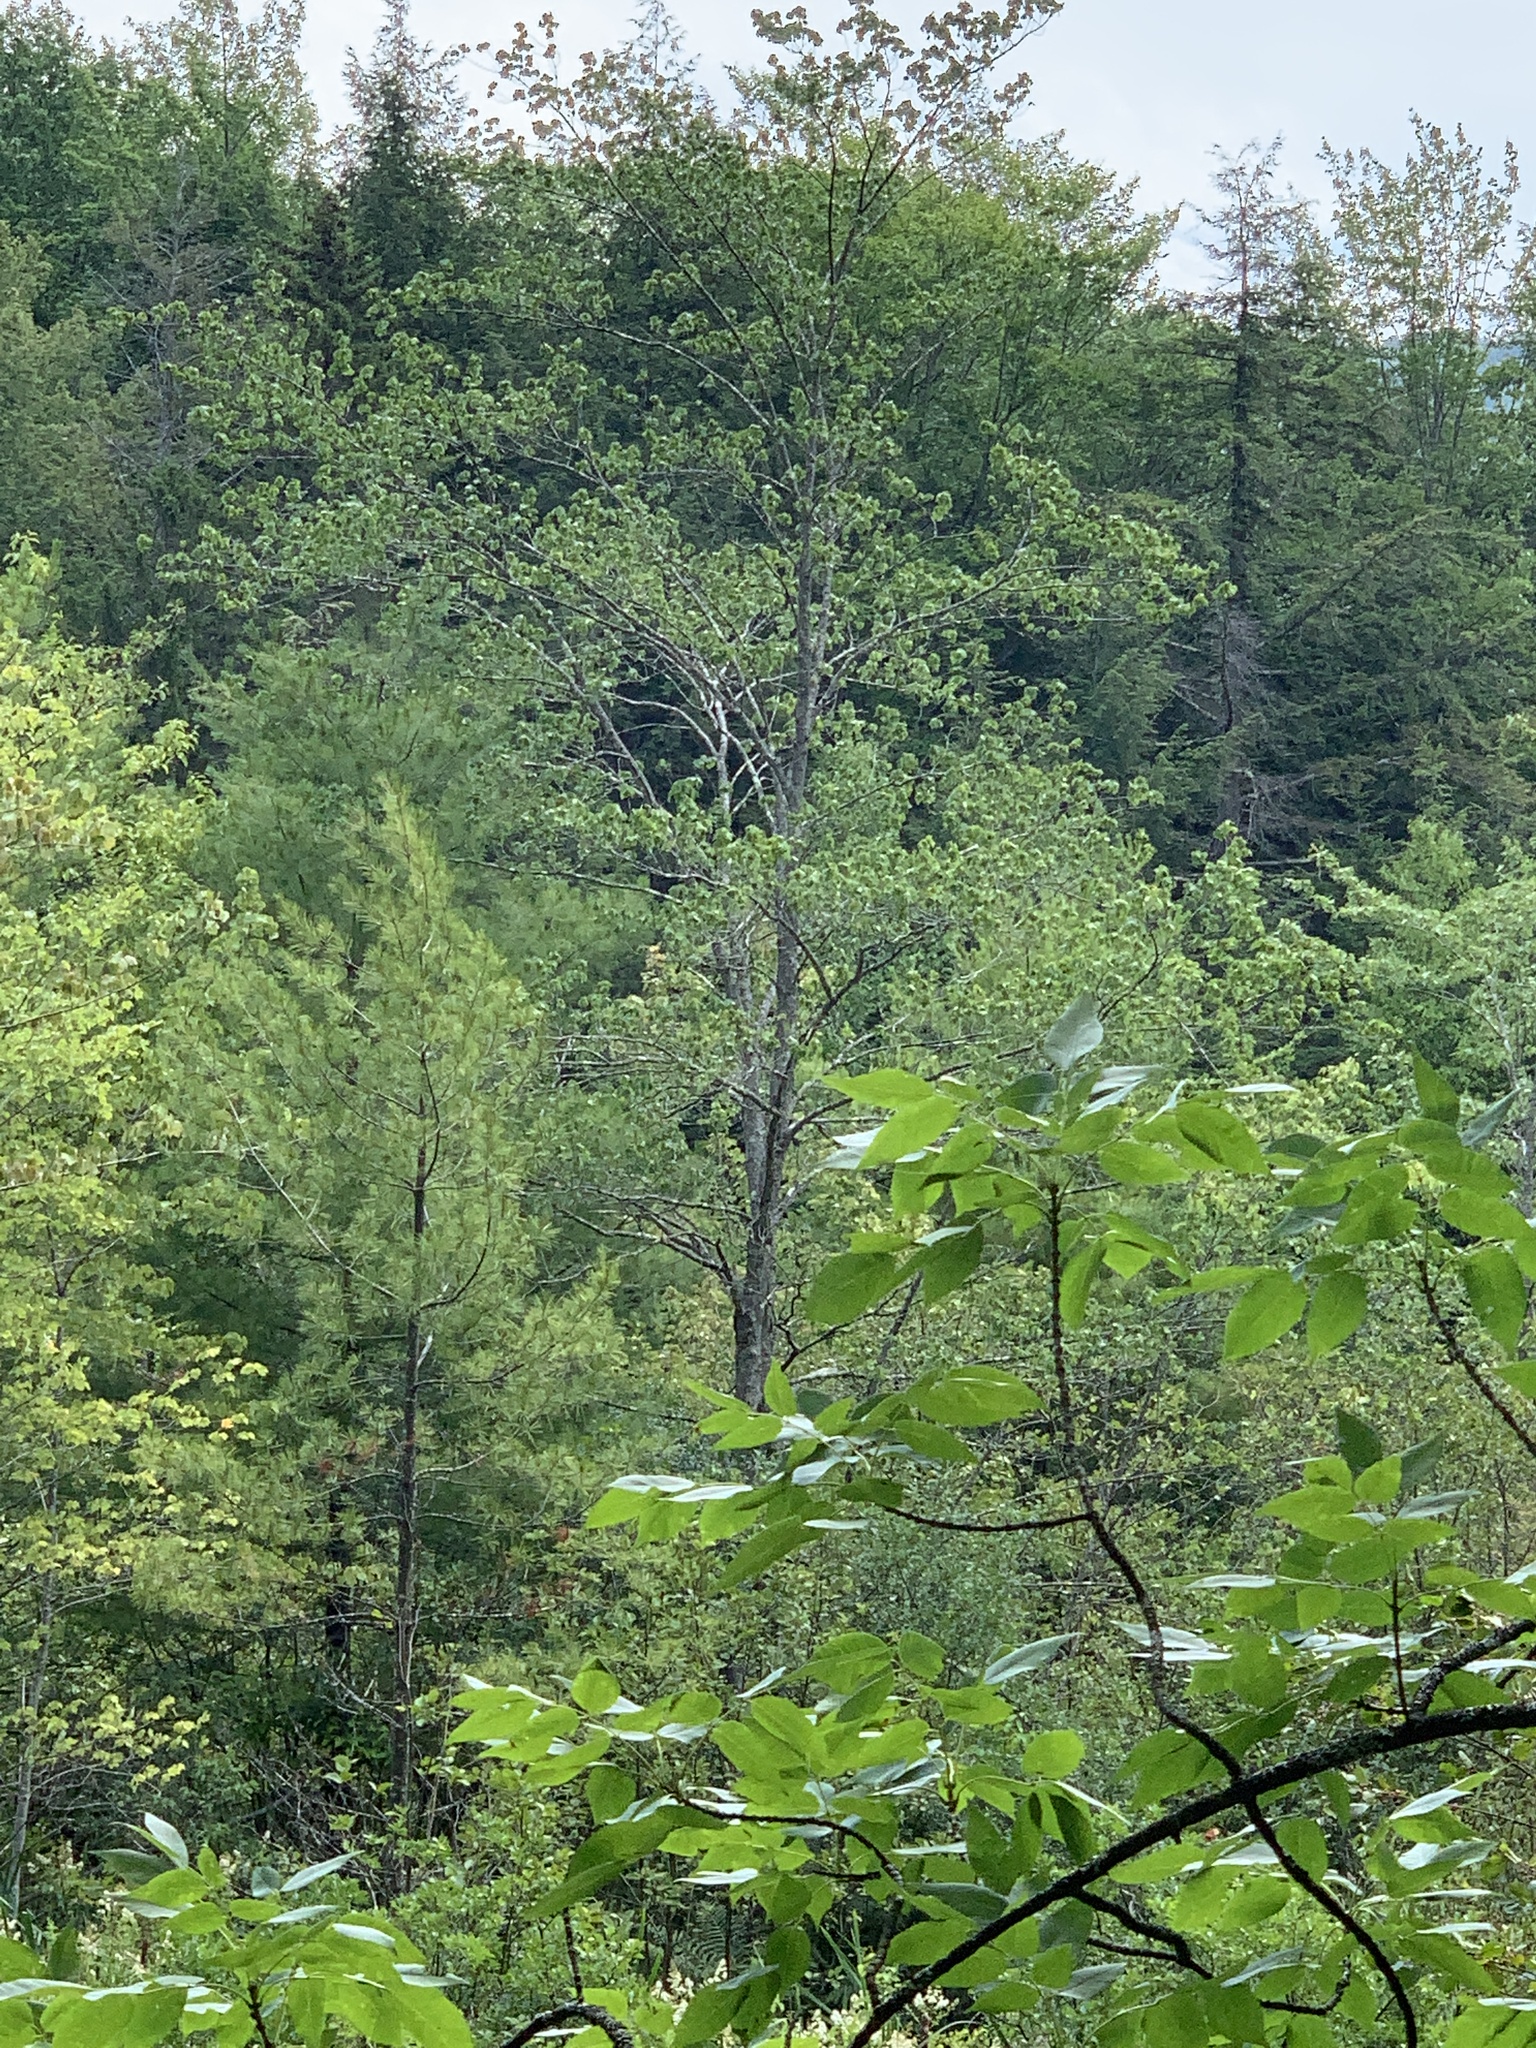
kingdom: Plantae
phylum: Tracheophyta
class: Pinopsida
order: Pinales
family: Pinaceae
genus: Pinus
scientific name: Pinus strobus
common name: Weymouth pine
